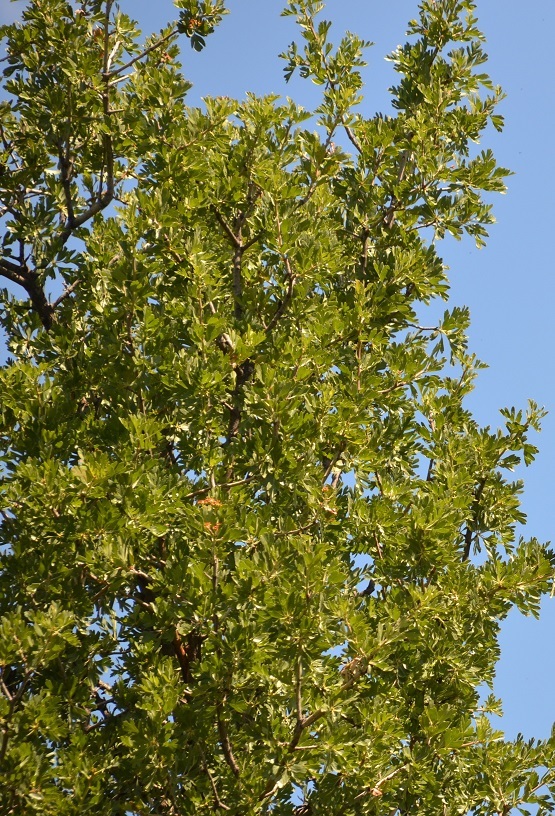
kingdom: Plantae
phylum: Tracheophyta
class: Magnoliopsida
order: Rosales
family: Rosaceae
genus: Crataegus
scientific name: Crataegus azarolus
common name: Azarole
